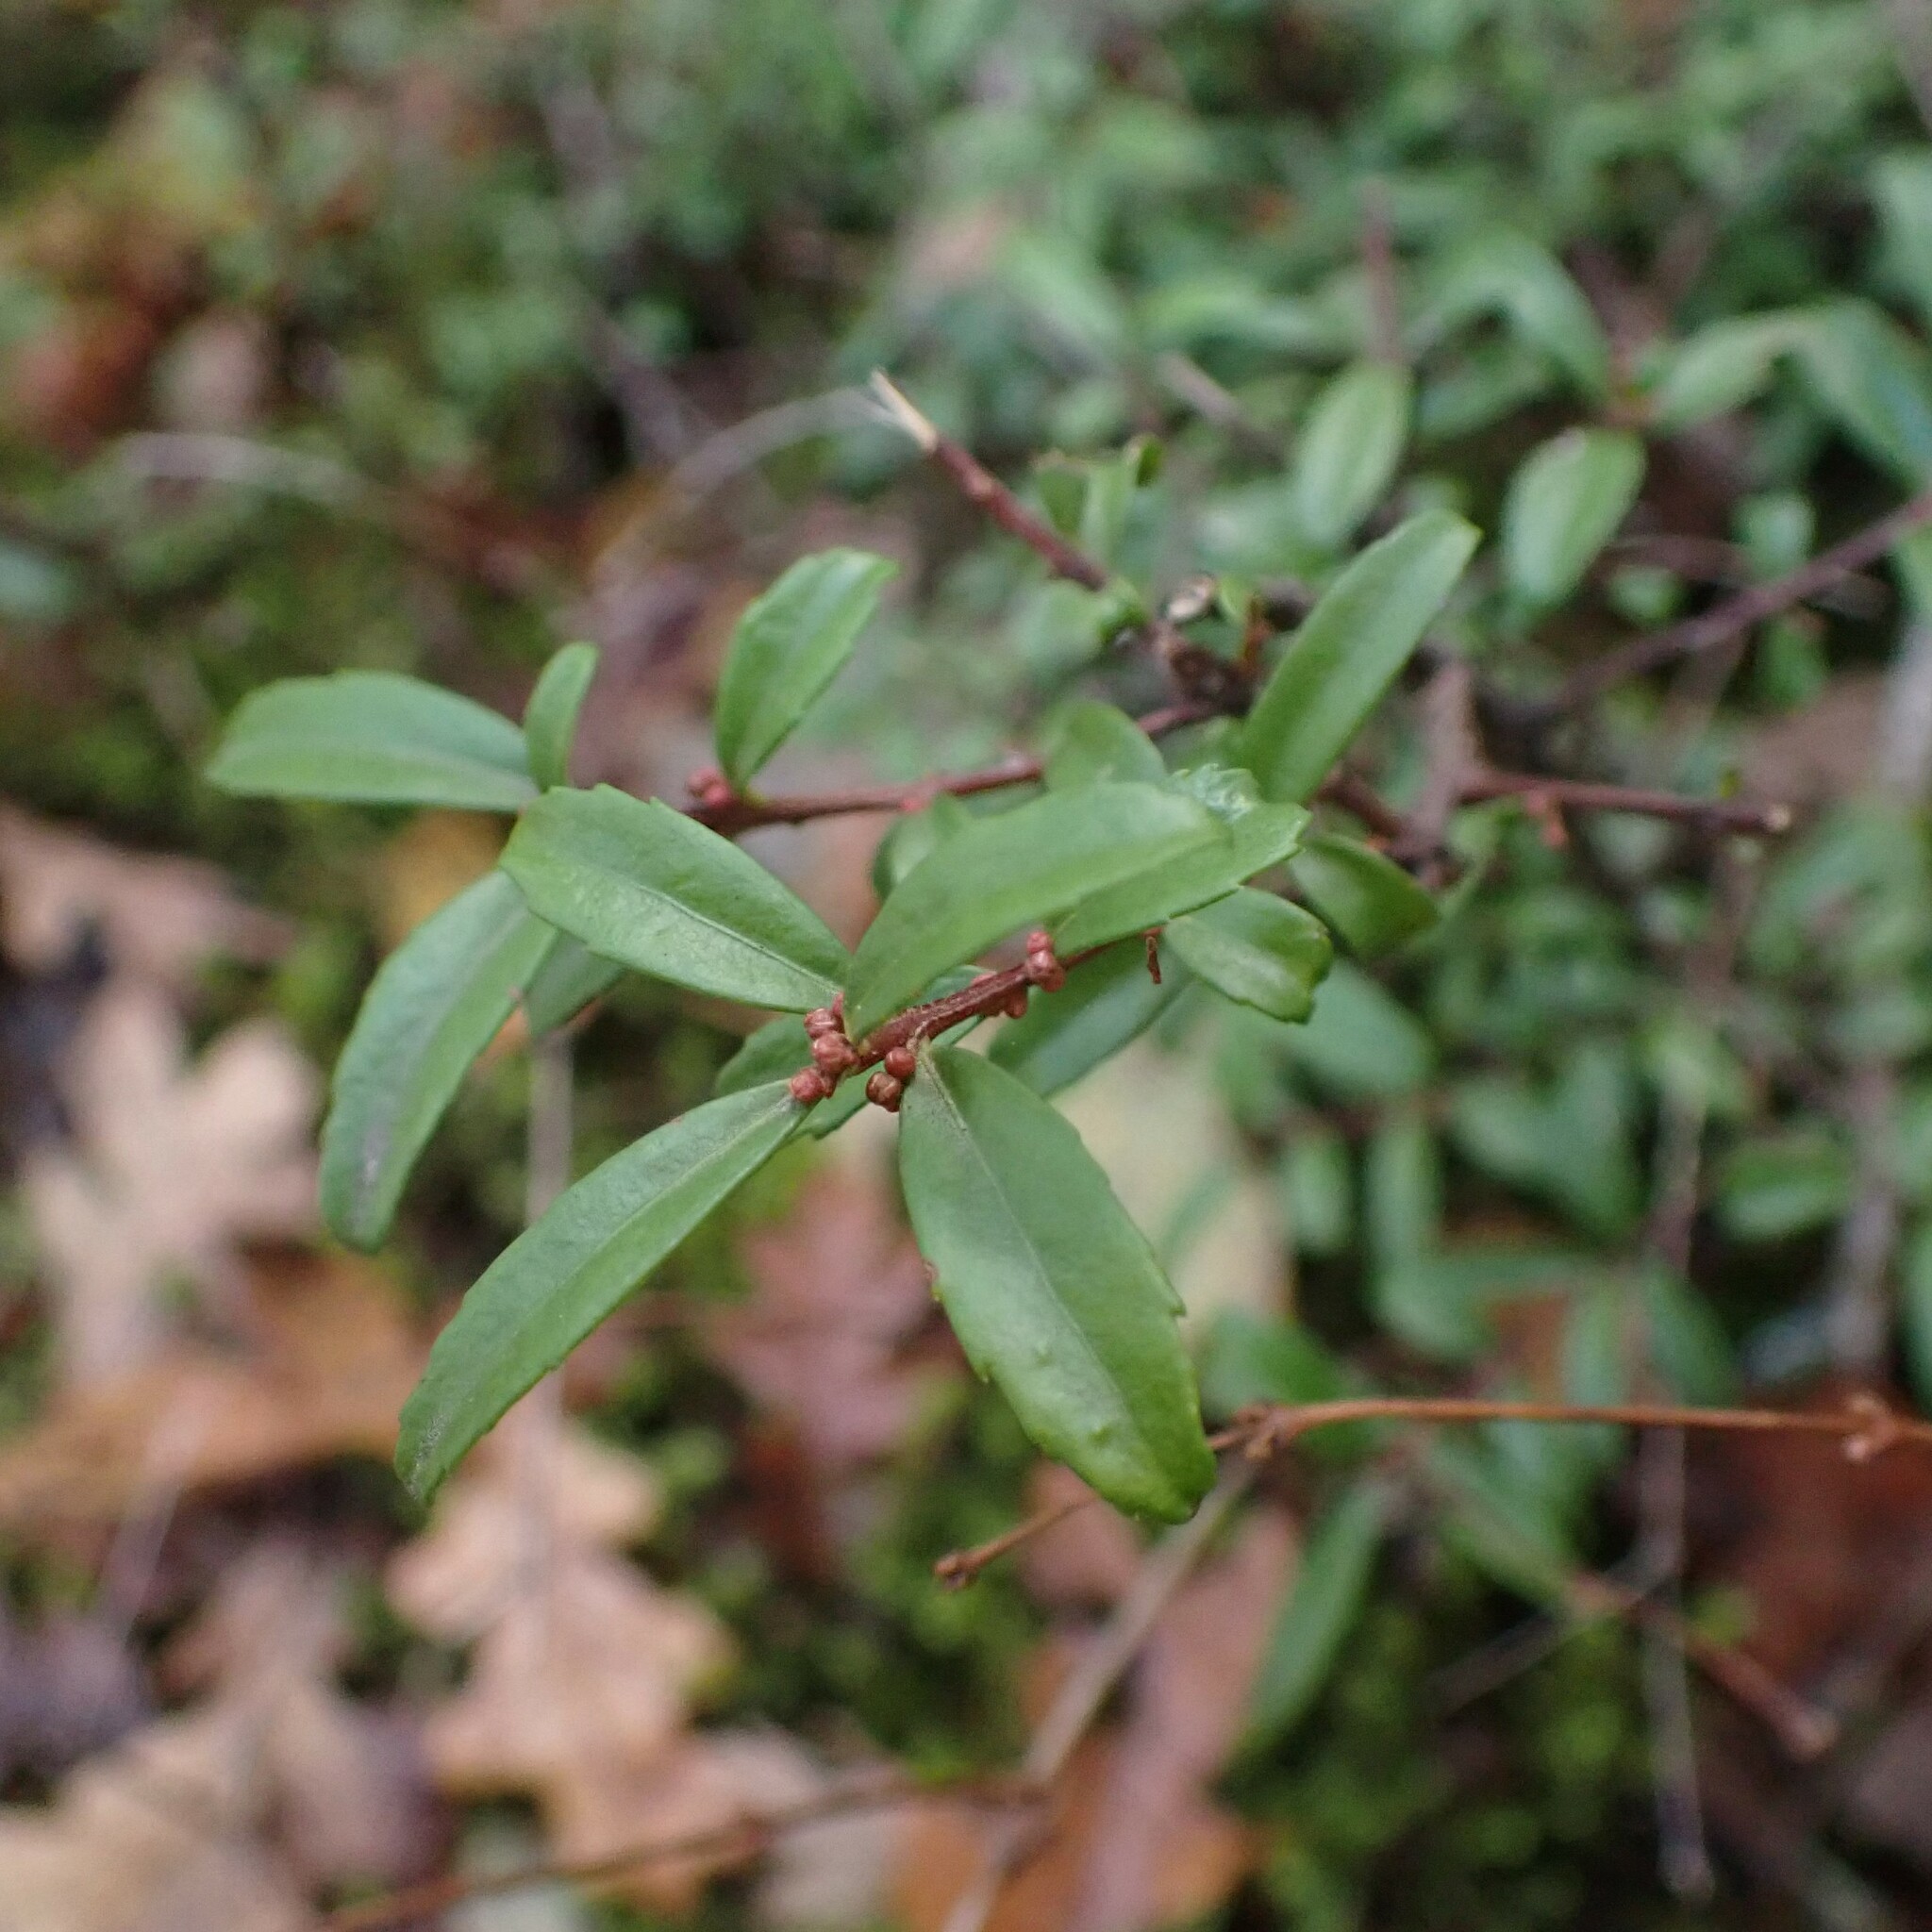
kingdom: Plantae
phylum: Tracheophyta
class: Magnoliopsida
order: Celastrales
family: Celastraceae
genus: Paxistima
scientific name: Paxistima myrsinites
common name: Mountain-lover
